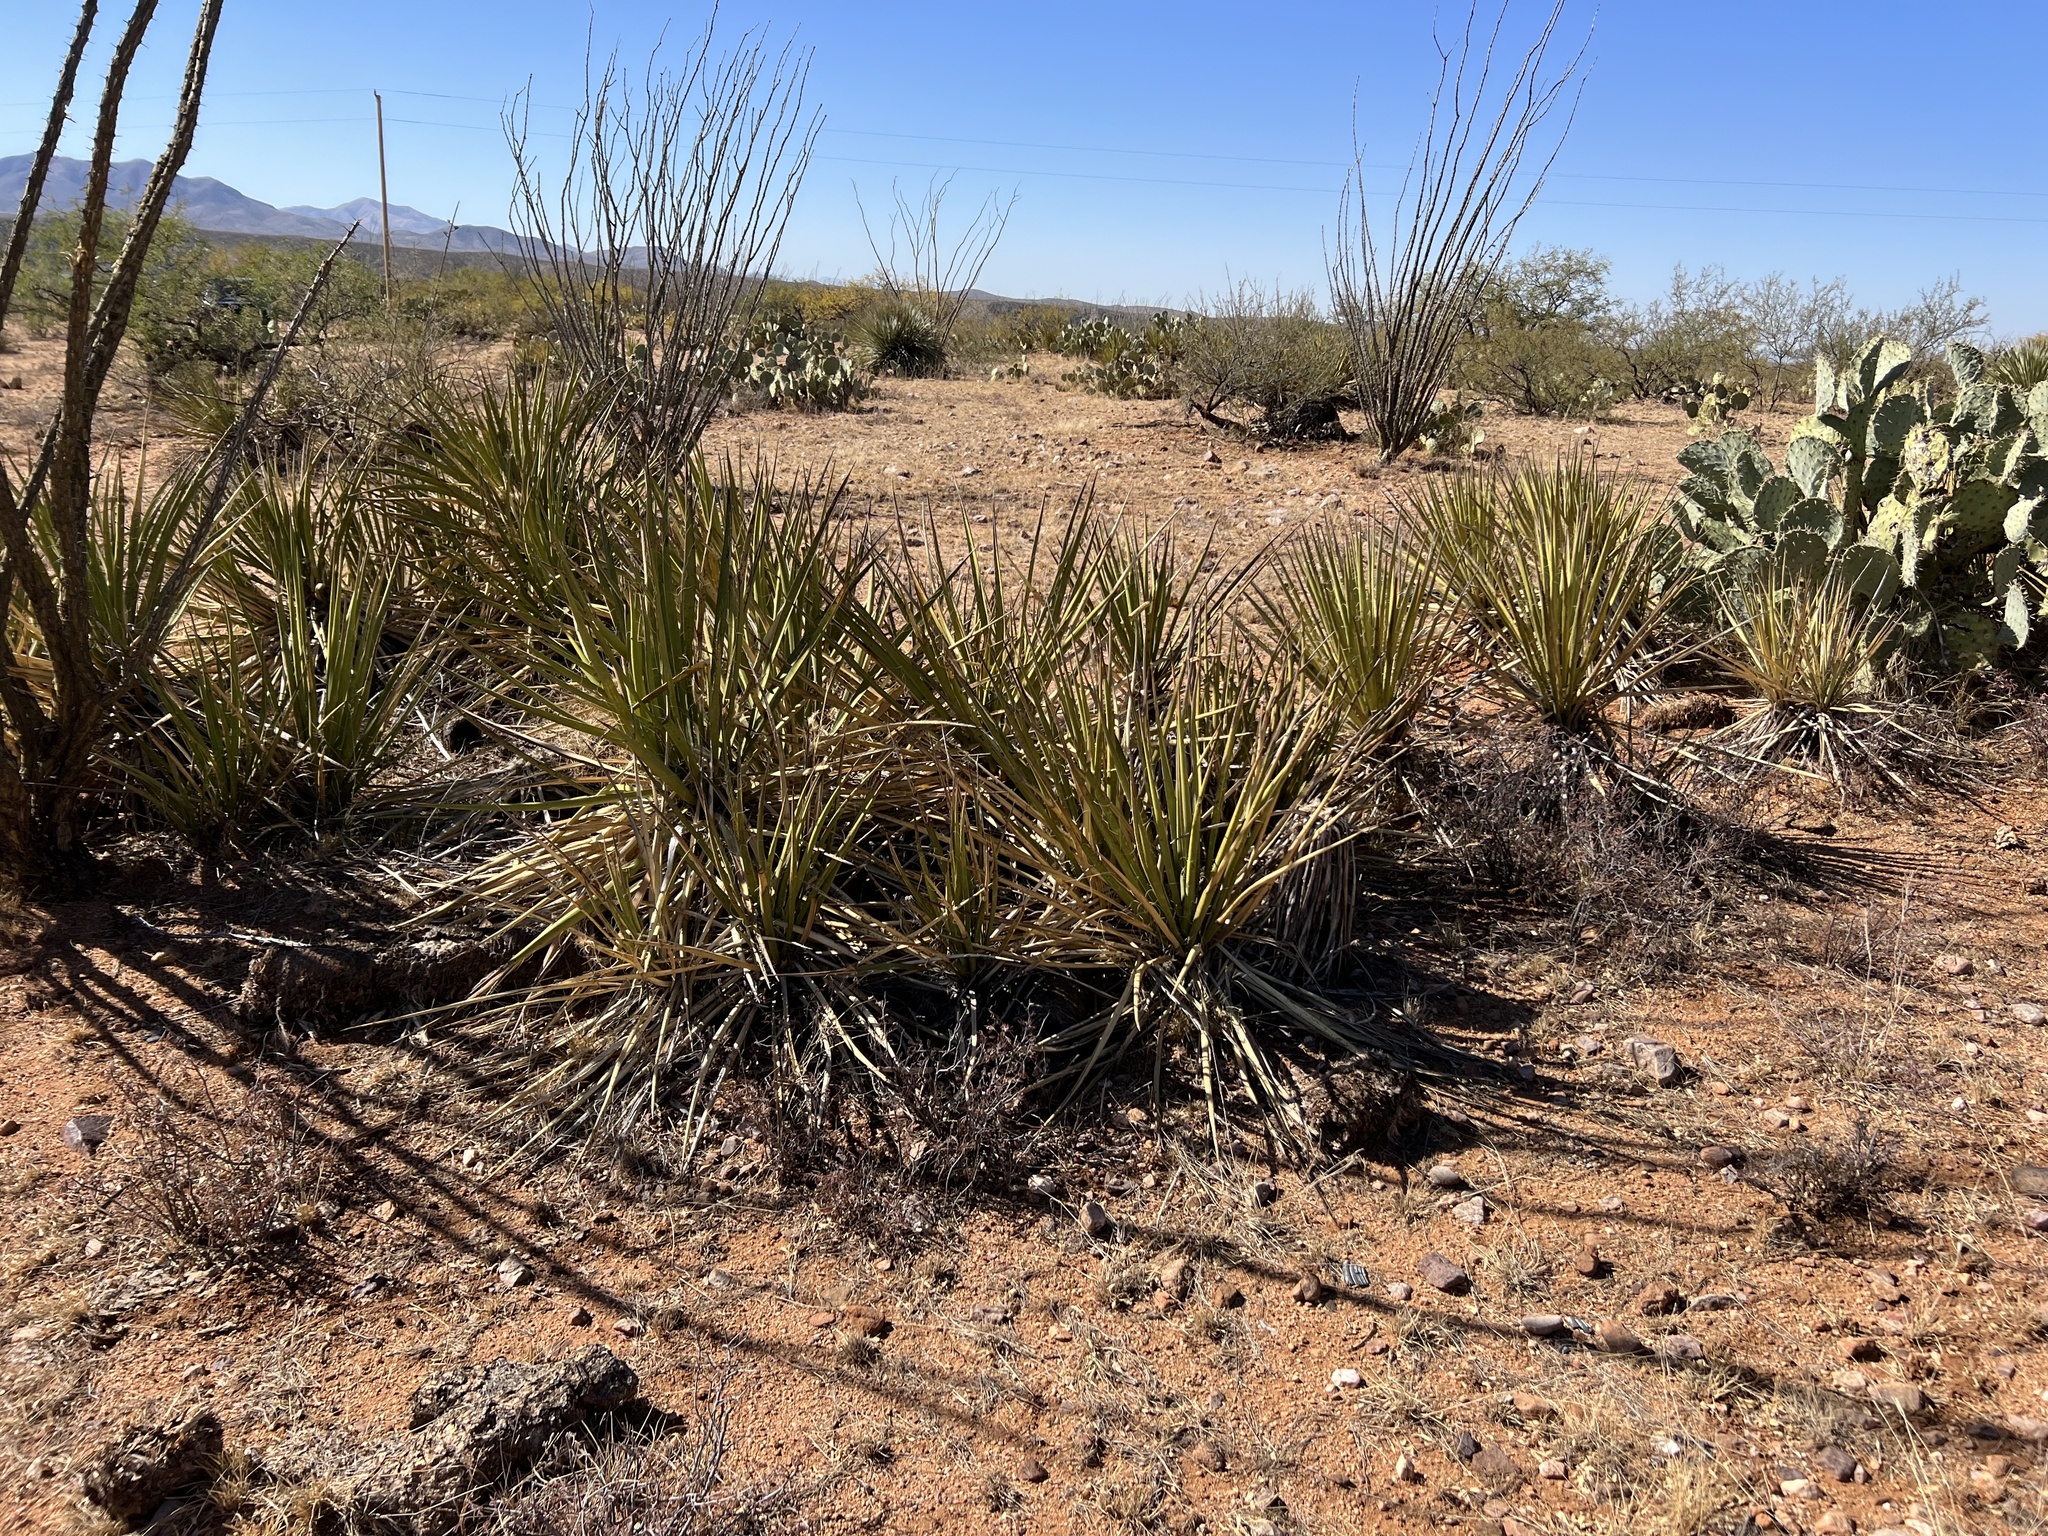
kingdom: Plantae
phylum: Tracheophyta
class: Liliopsida
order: Asparagales
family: Asparagaceae
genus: Yucca
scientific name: Yucca baccata
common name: Banana yucca
